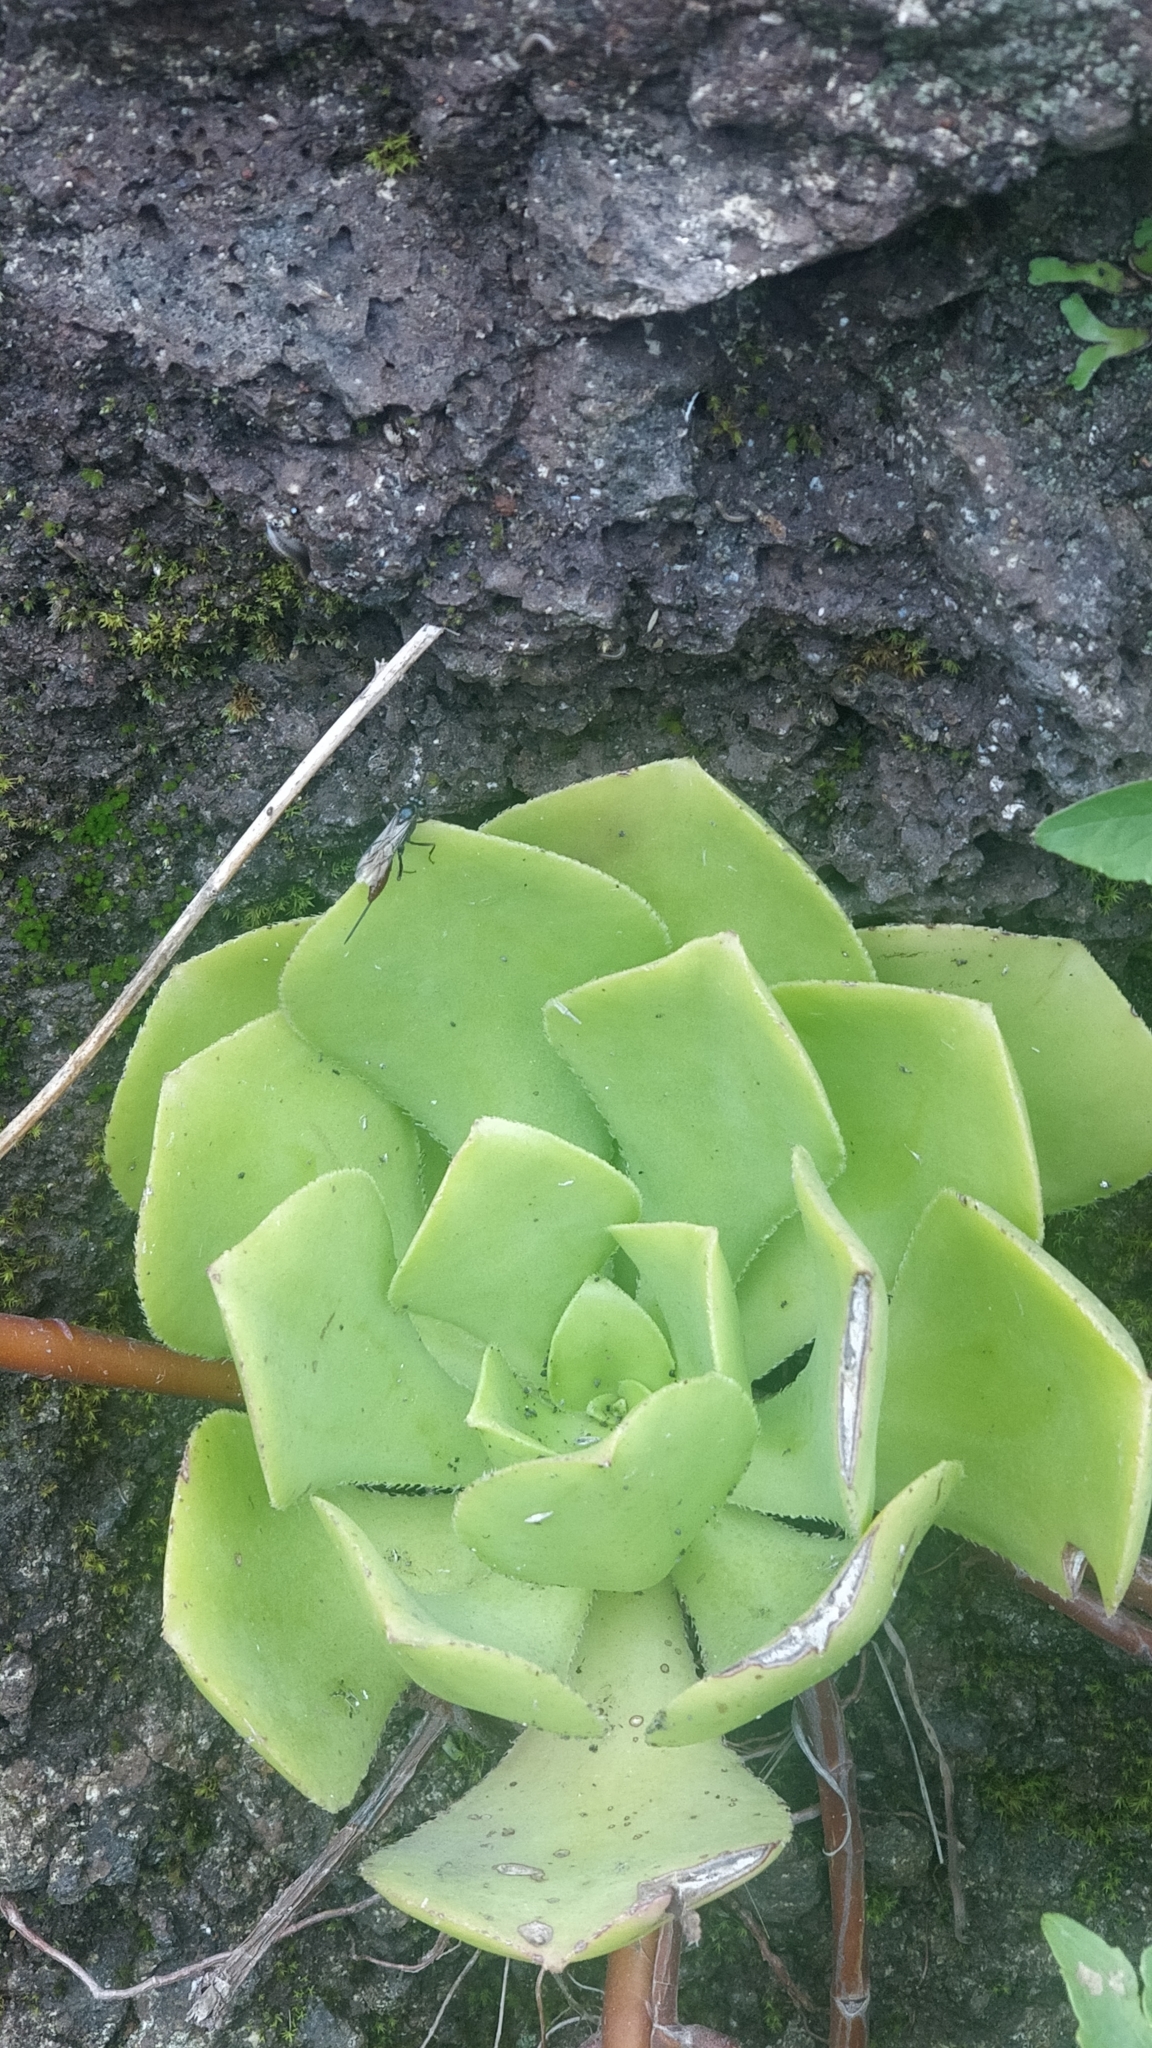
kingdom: Plantae
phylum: Tracheophyta
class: Magnoliopsida
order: Saxifragales
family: Crassulaceae
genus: Aeonium
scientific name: Aeonium glutinosum
